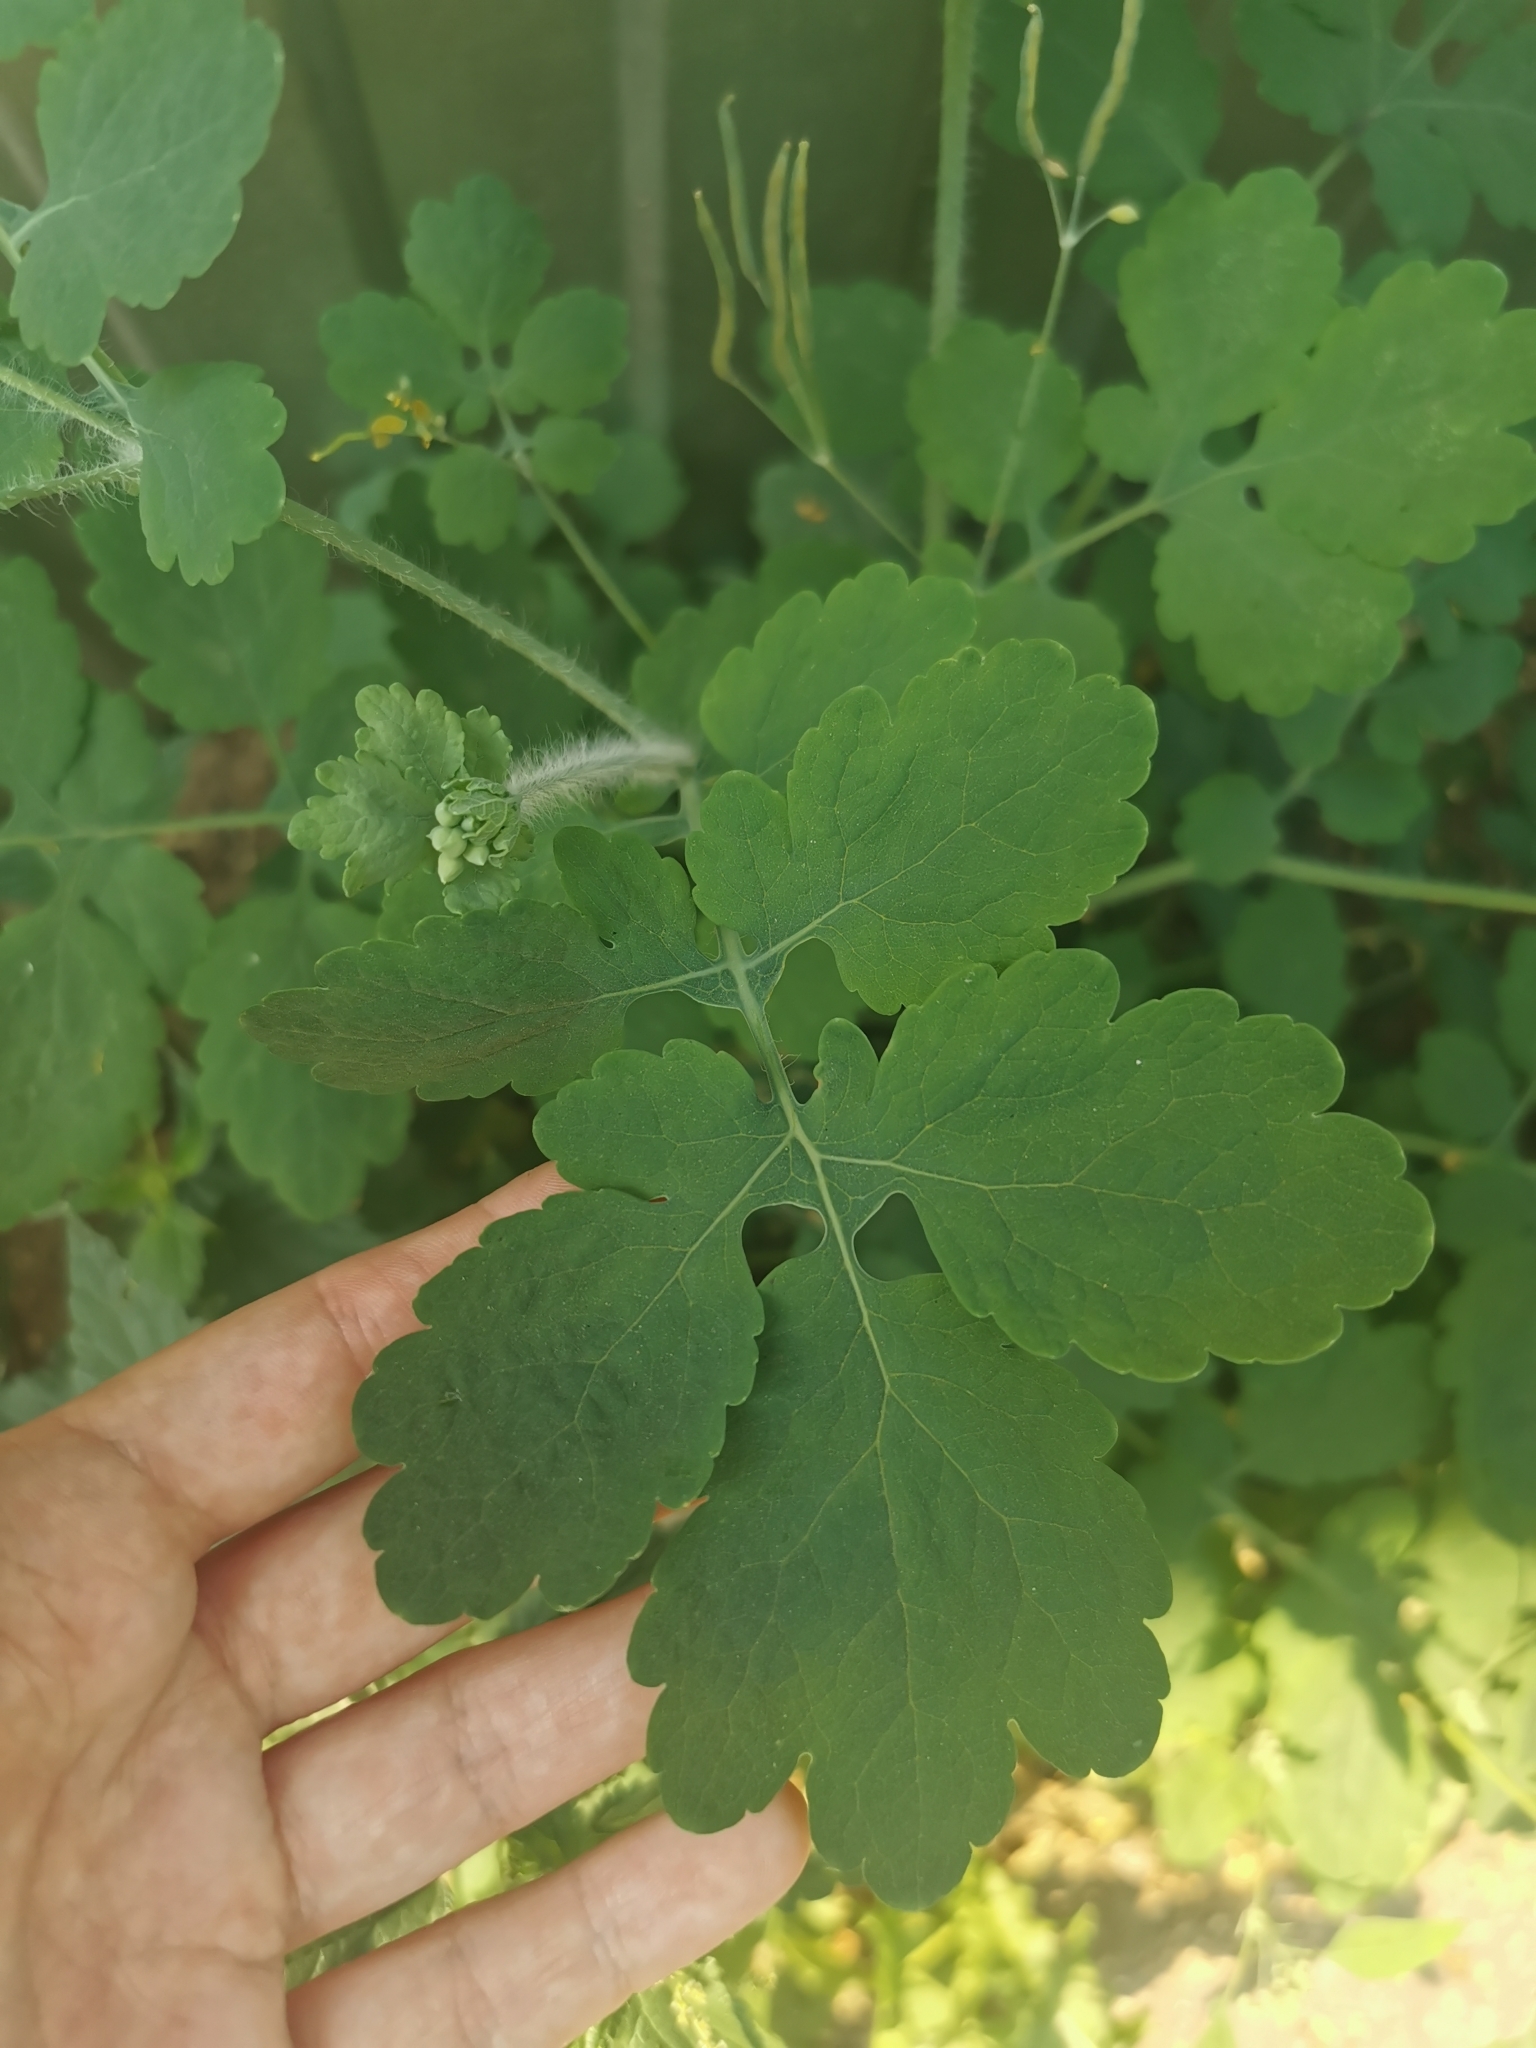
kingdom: Plantae
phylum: Tracheophyta
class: Magnoliopsida
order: Ranunculales
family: Papaveraceae
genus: Chelidonium
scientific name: Chelidonium majus
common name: Greater celandine
